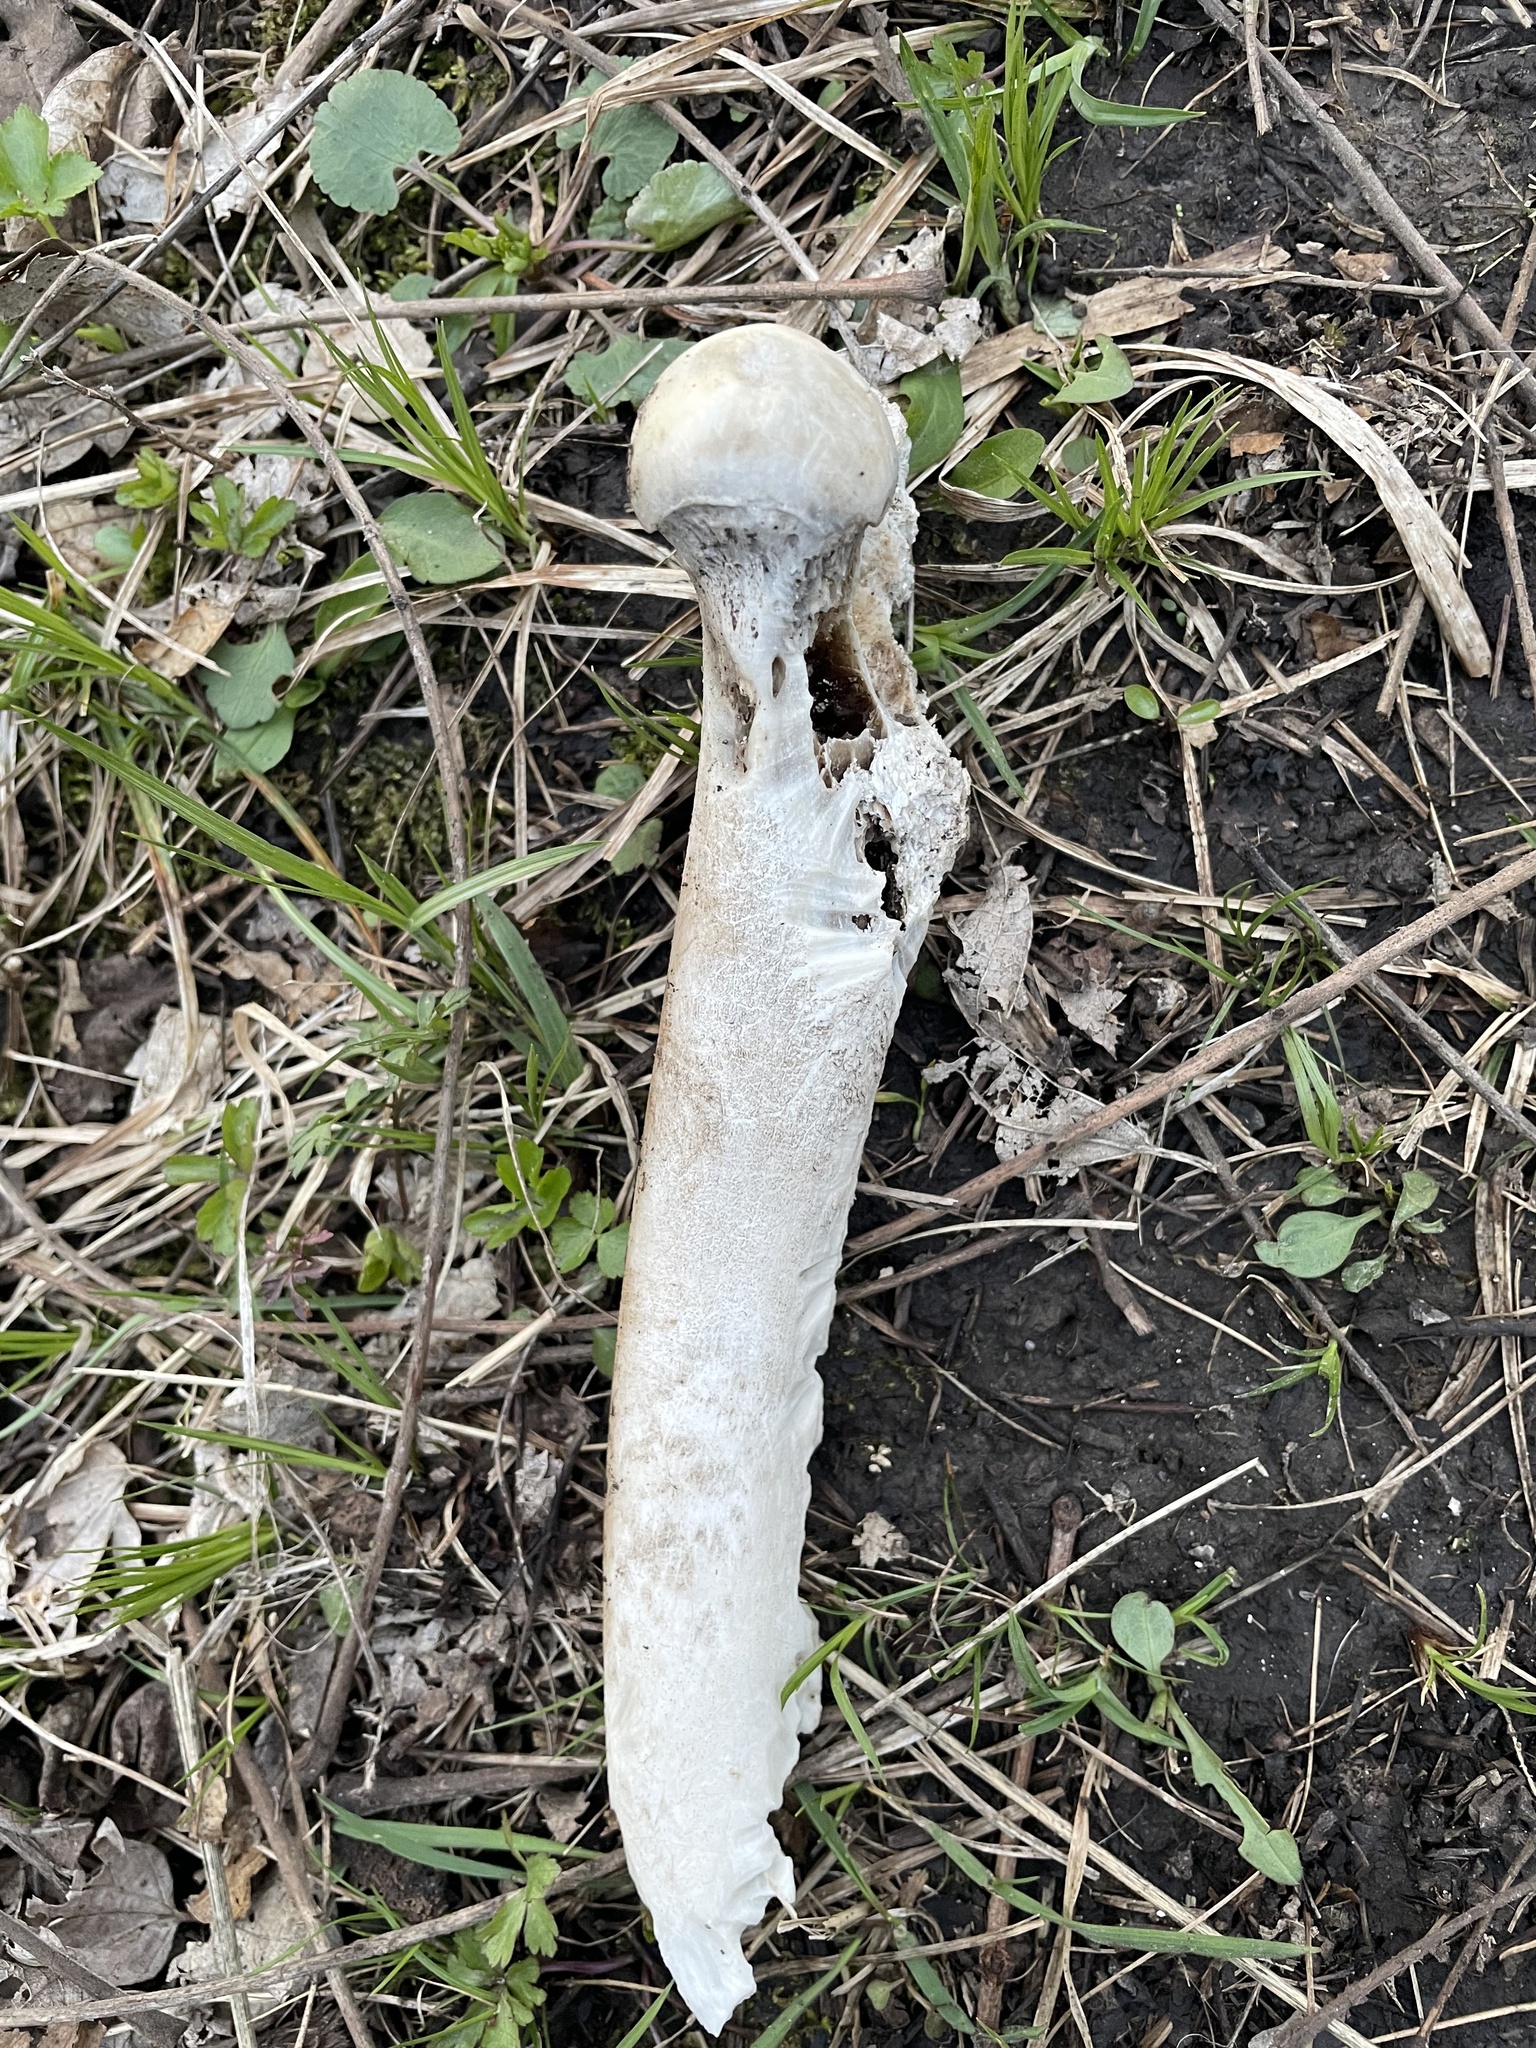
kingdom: Animalia
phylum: Chordata
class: Mammalia
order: Artiodactyla
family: Cervidae
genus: Odocoileus
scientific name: Odocoileus virginianus
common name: White-tailed deer
